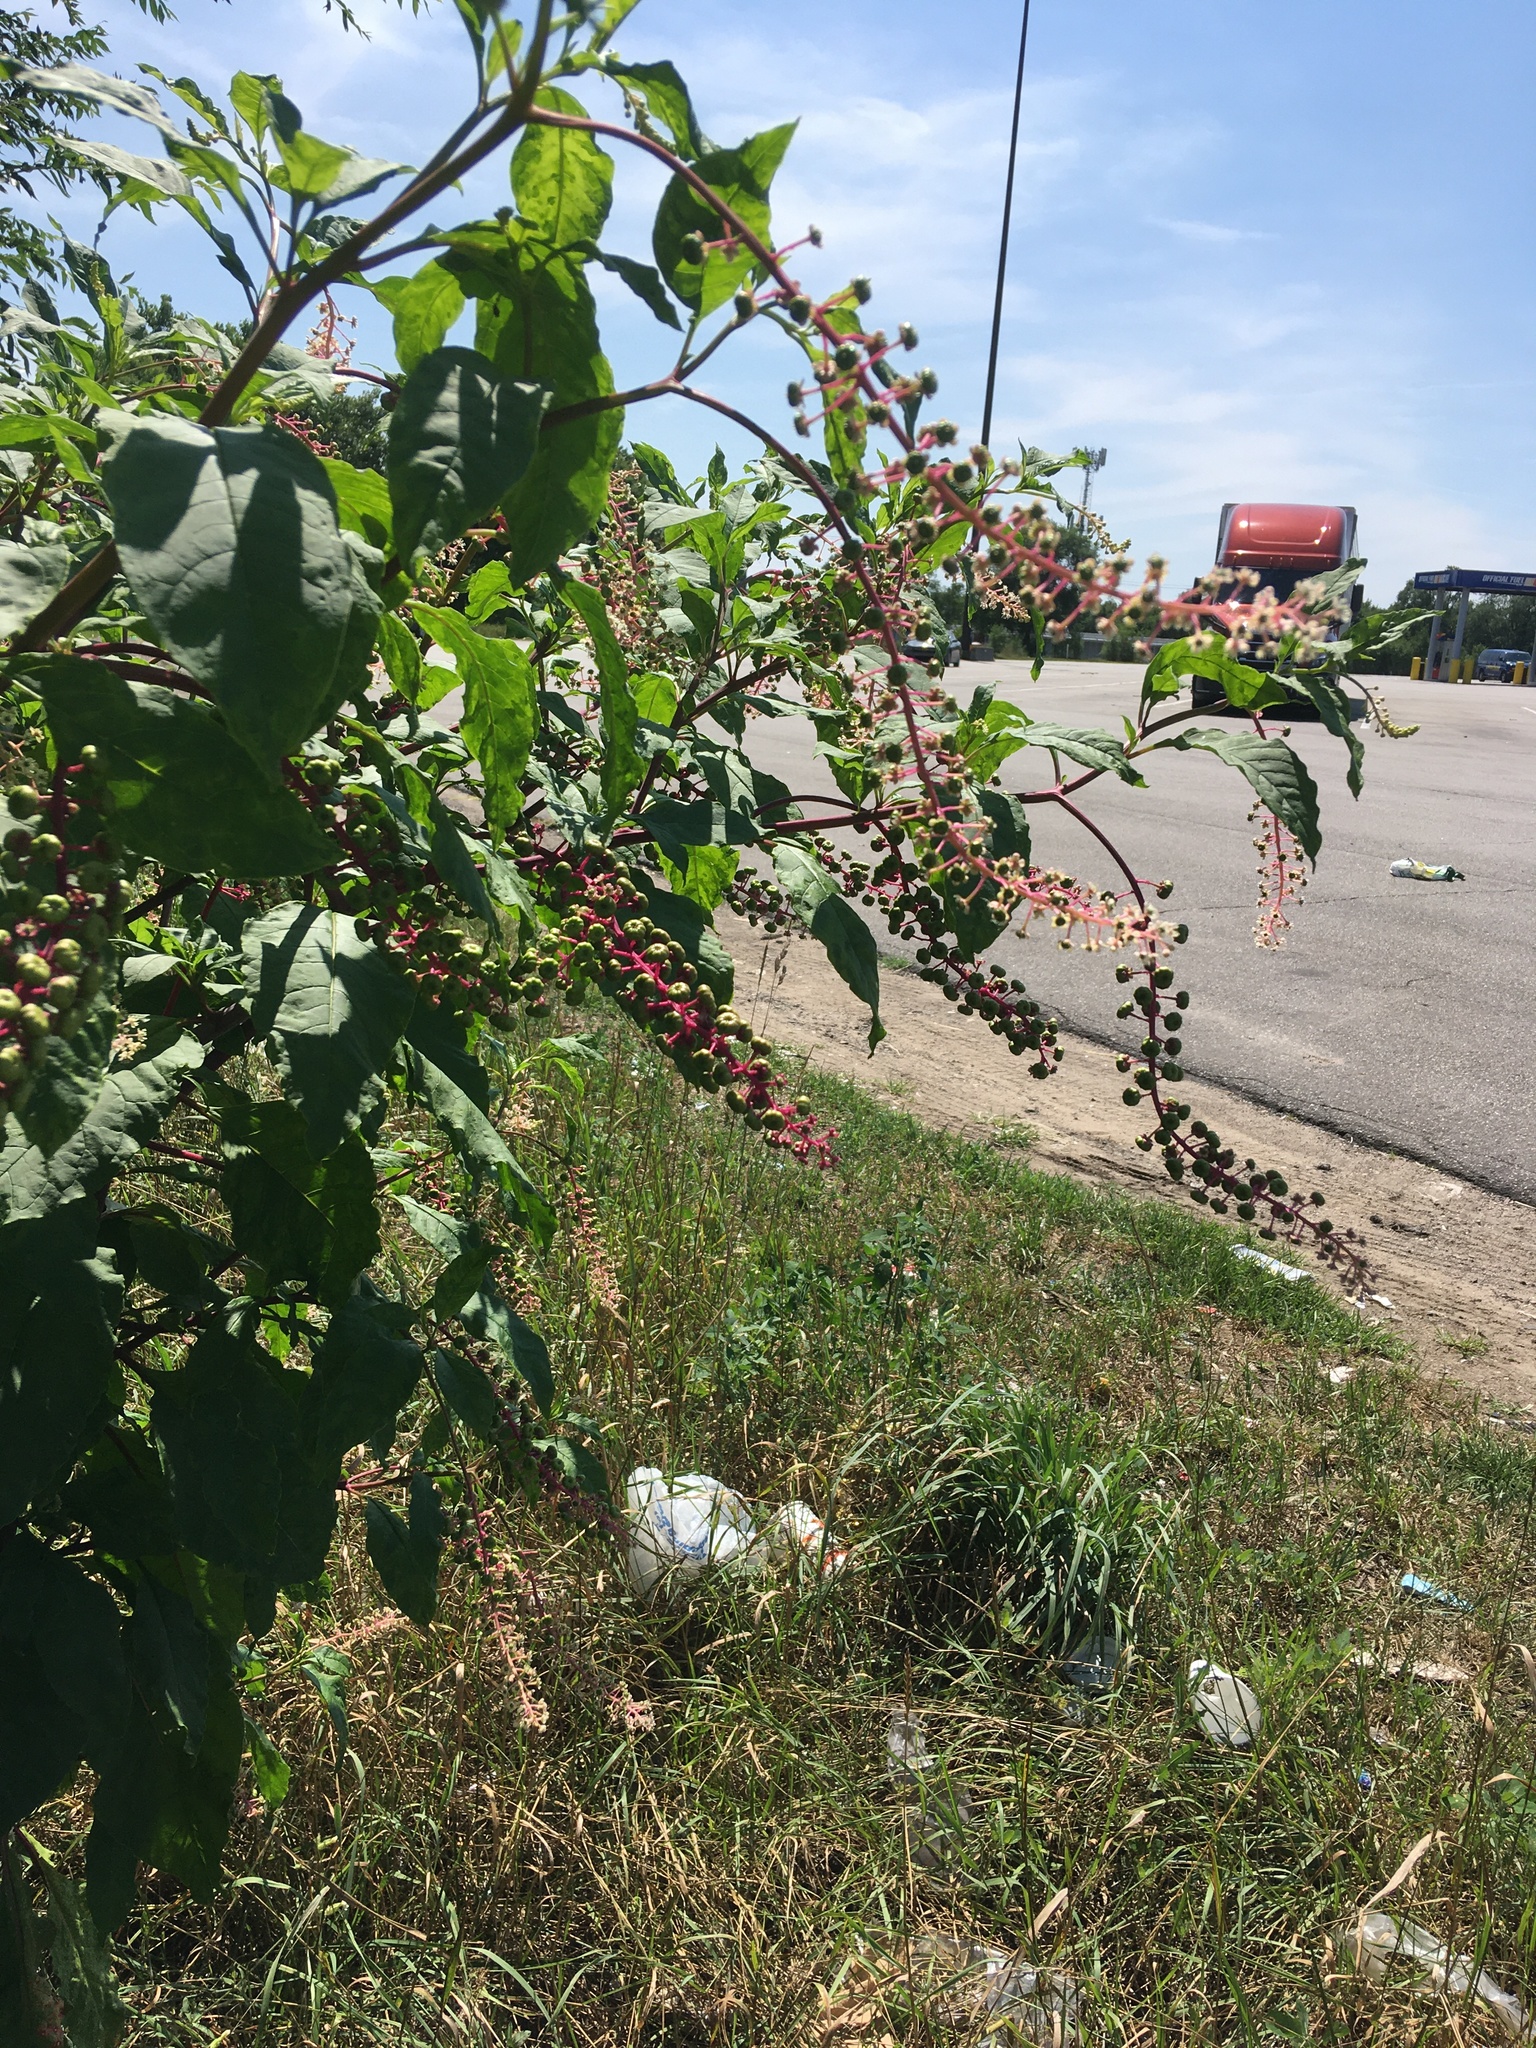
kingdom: Plantae
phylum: Tracheophyta
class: Magnoliopsida
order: Caryophyllales
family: Phytolaccaceae
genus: Phytolacca
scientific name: Phytolacca americana
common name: American pokeweed
